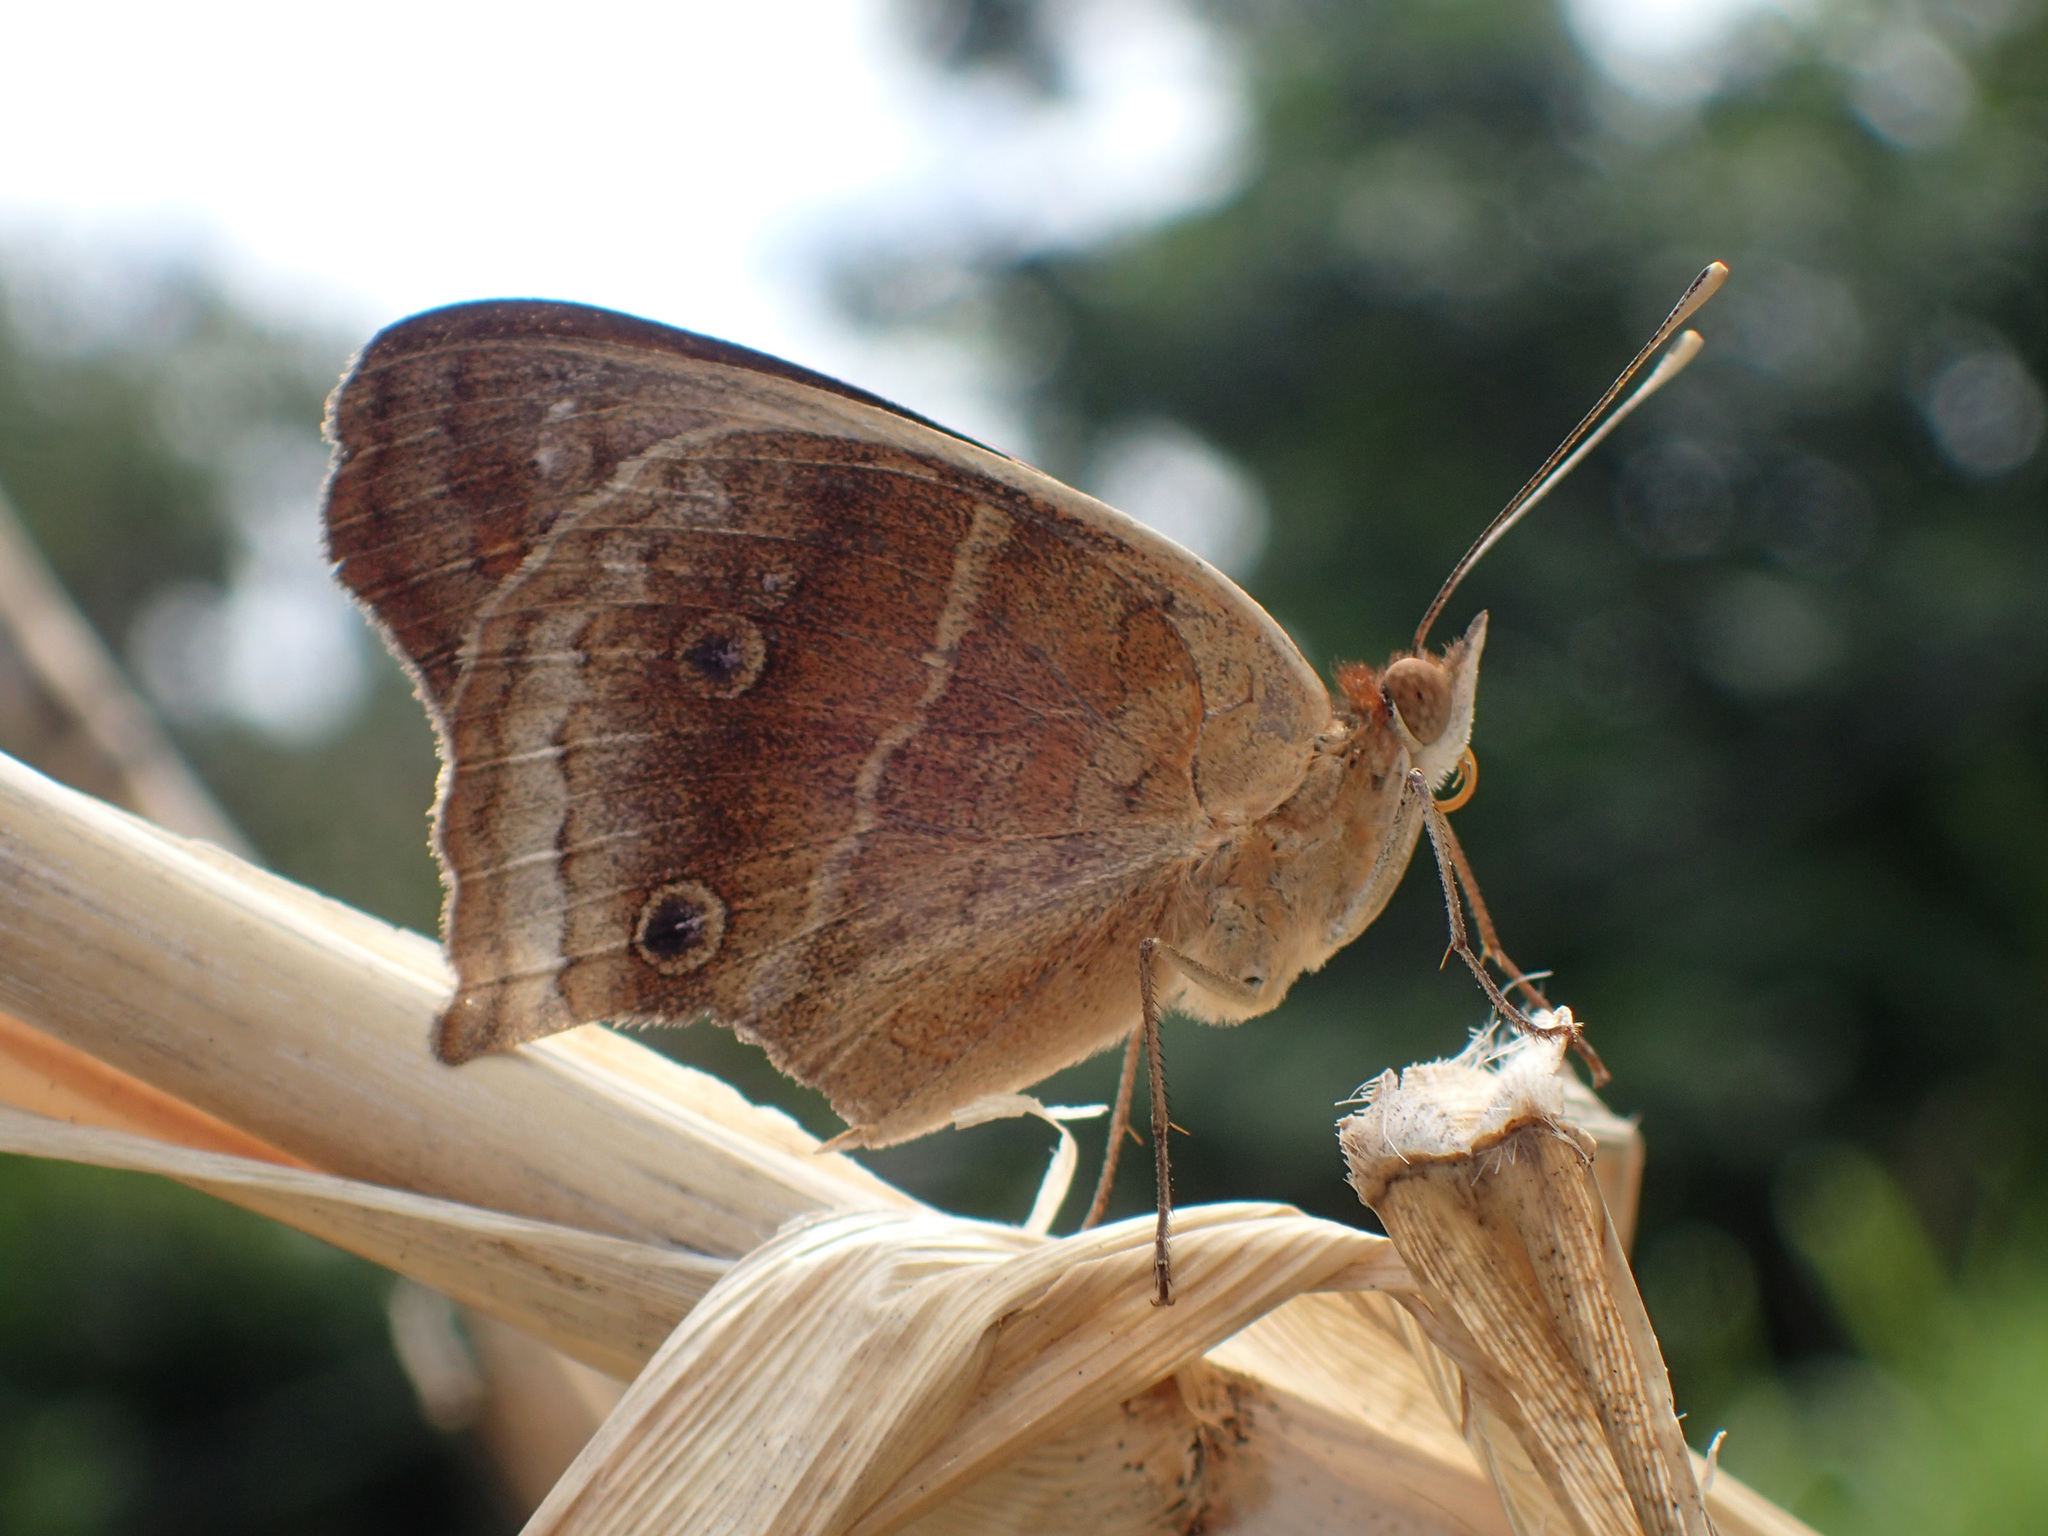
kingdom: Animalia
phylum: Arthropoda
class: Insecta
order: Lepidoptera
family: Nymphalidae
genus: Junonia
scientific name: Junonia lavinia
